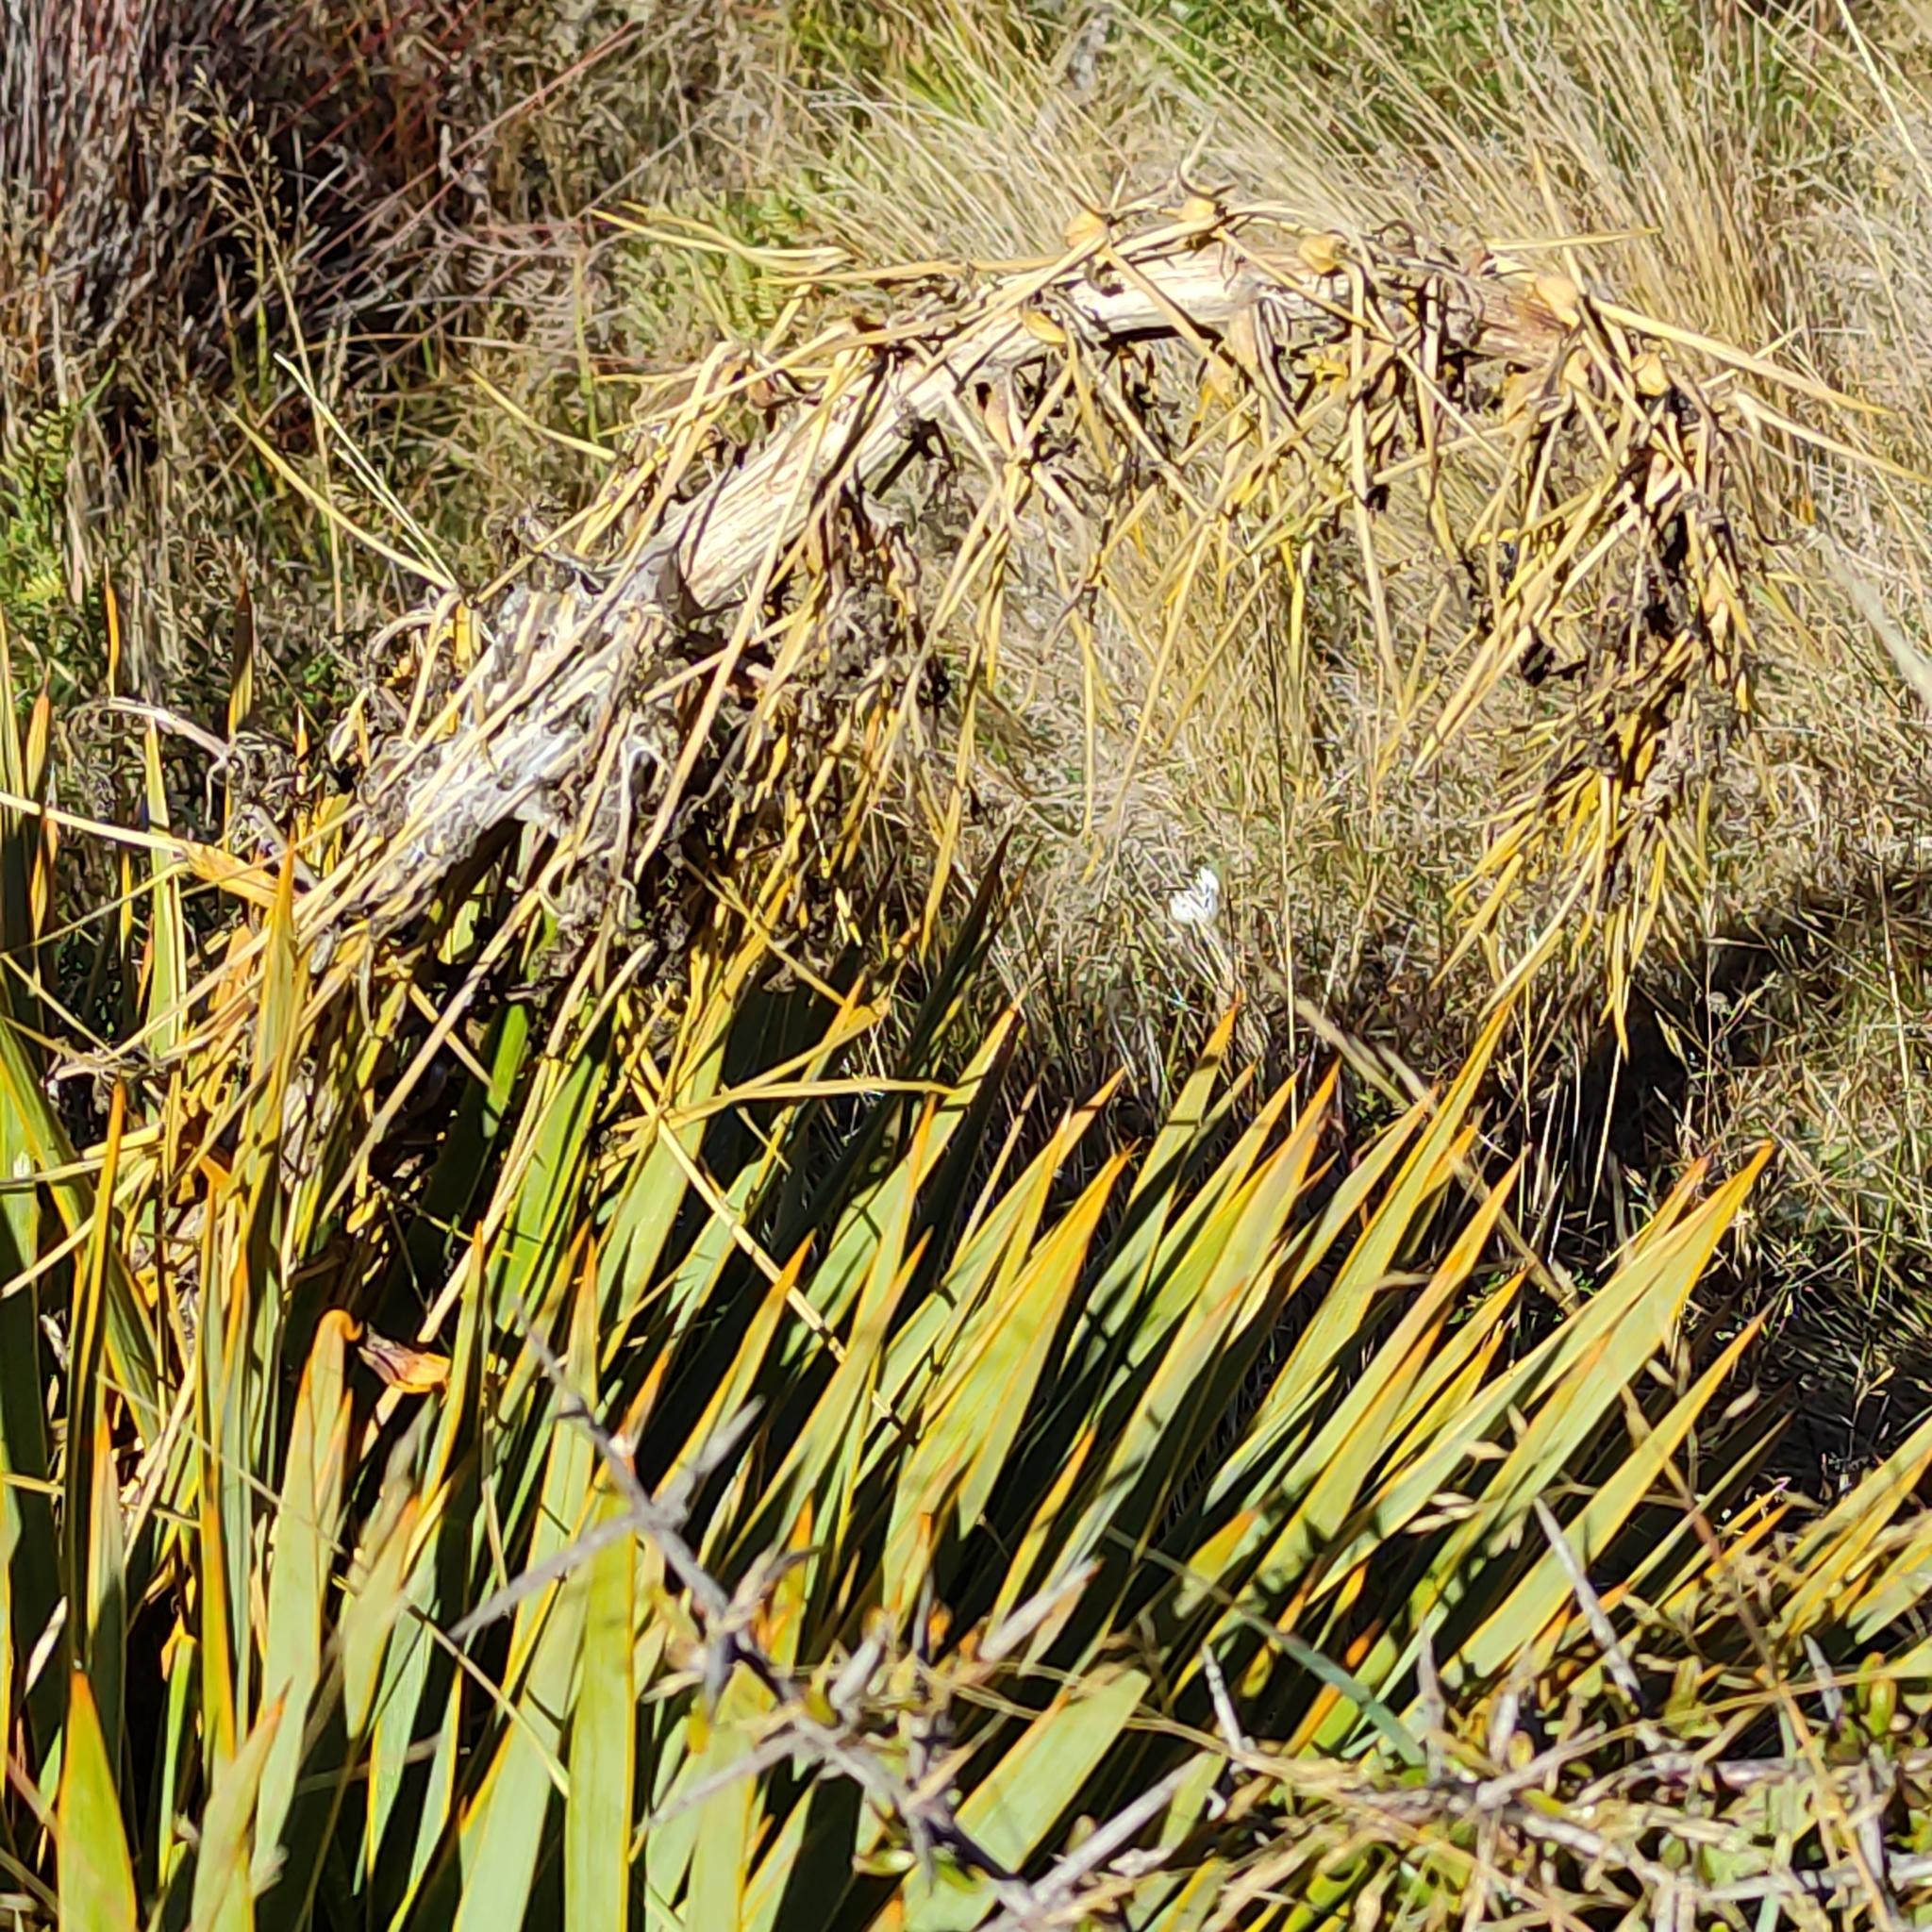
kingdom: Plantae
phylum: Tracheophyta
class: Magnoliopsida
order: Apiales
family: Apiaceae
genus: Aciphylla
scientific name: Aciphylla aurea
